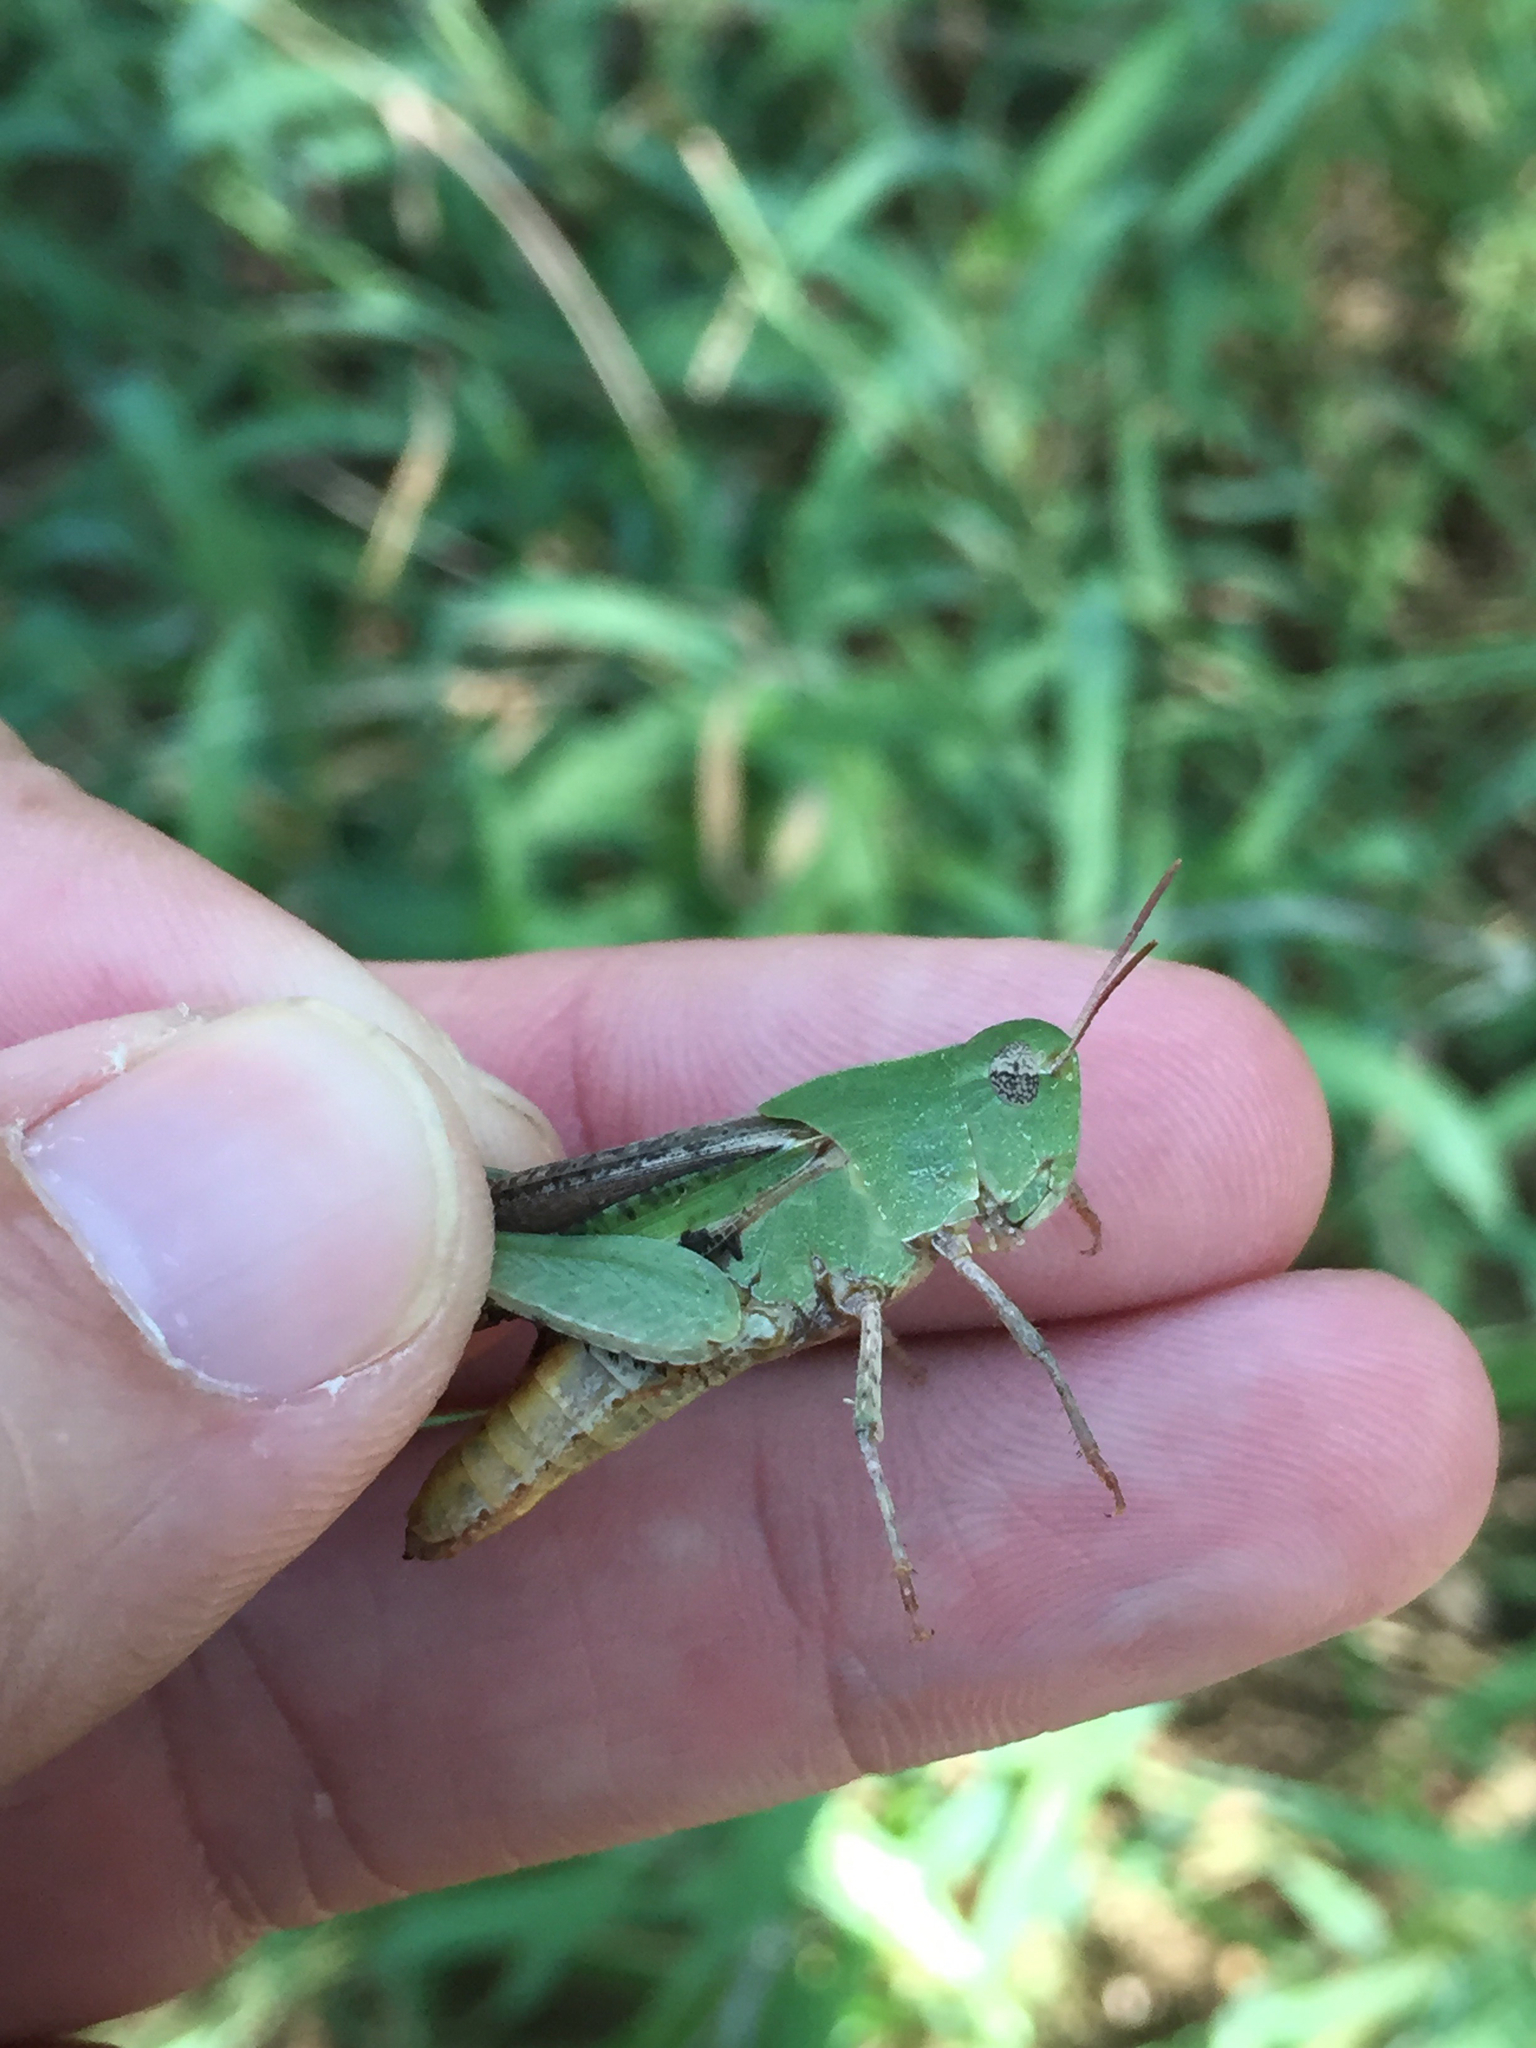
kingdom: Animalia
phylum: Arthropoda
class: Insecta
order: Orthoptera
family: Acrididae
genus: Chortophaga
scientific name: Chortophaga viridifasciata
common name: Green-striped grasshopper
